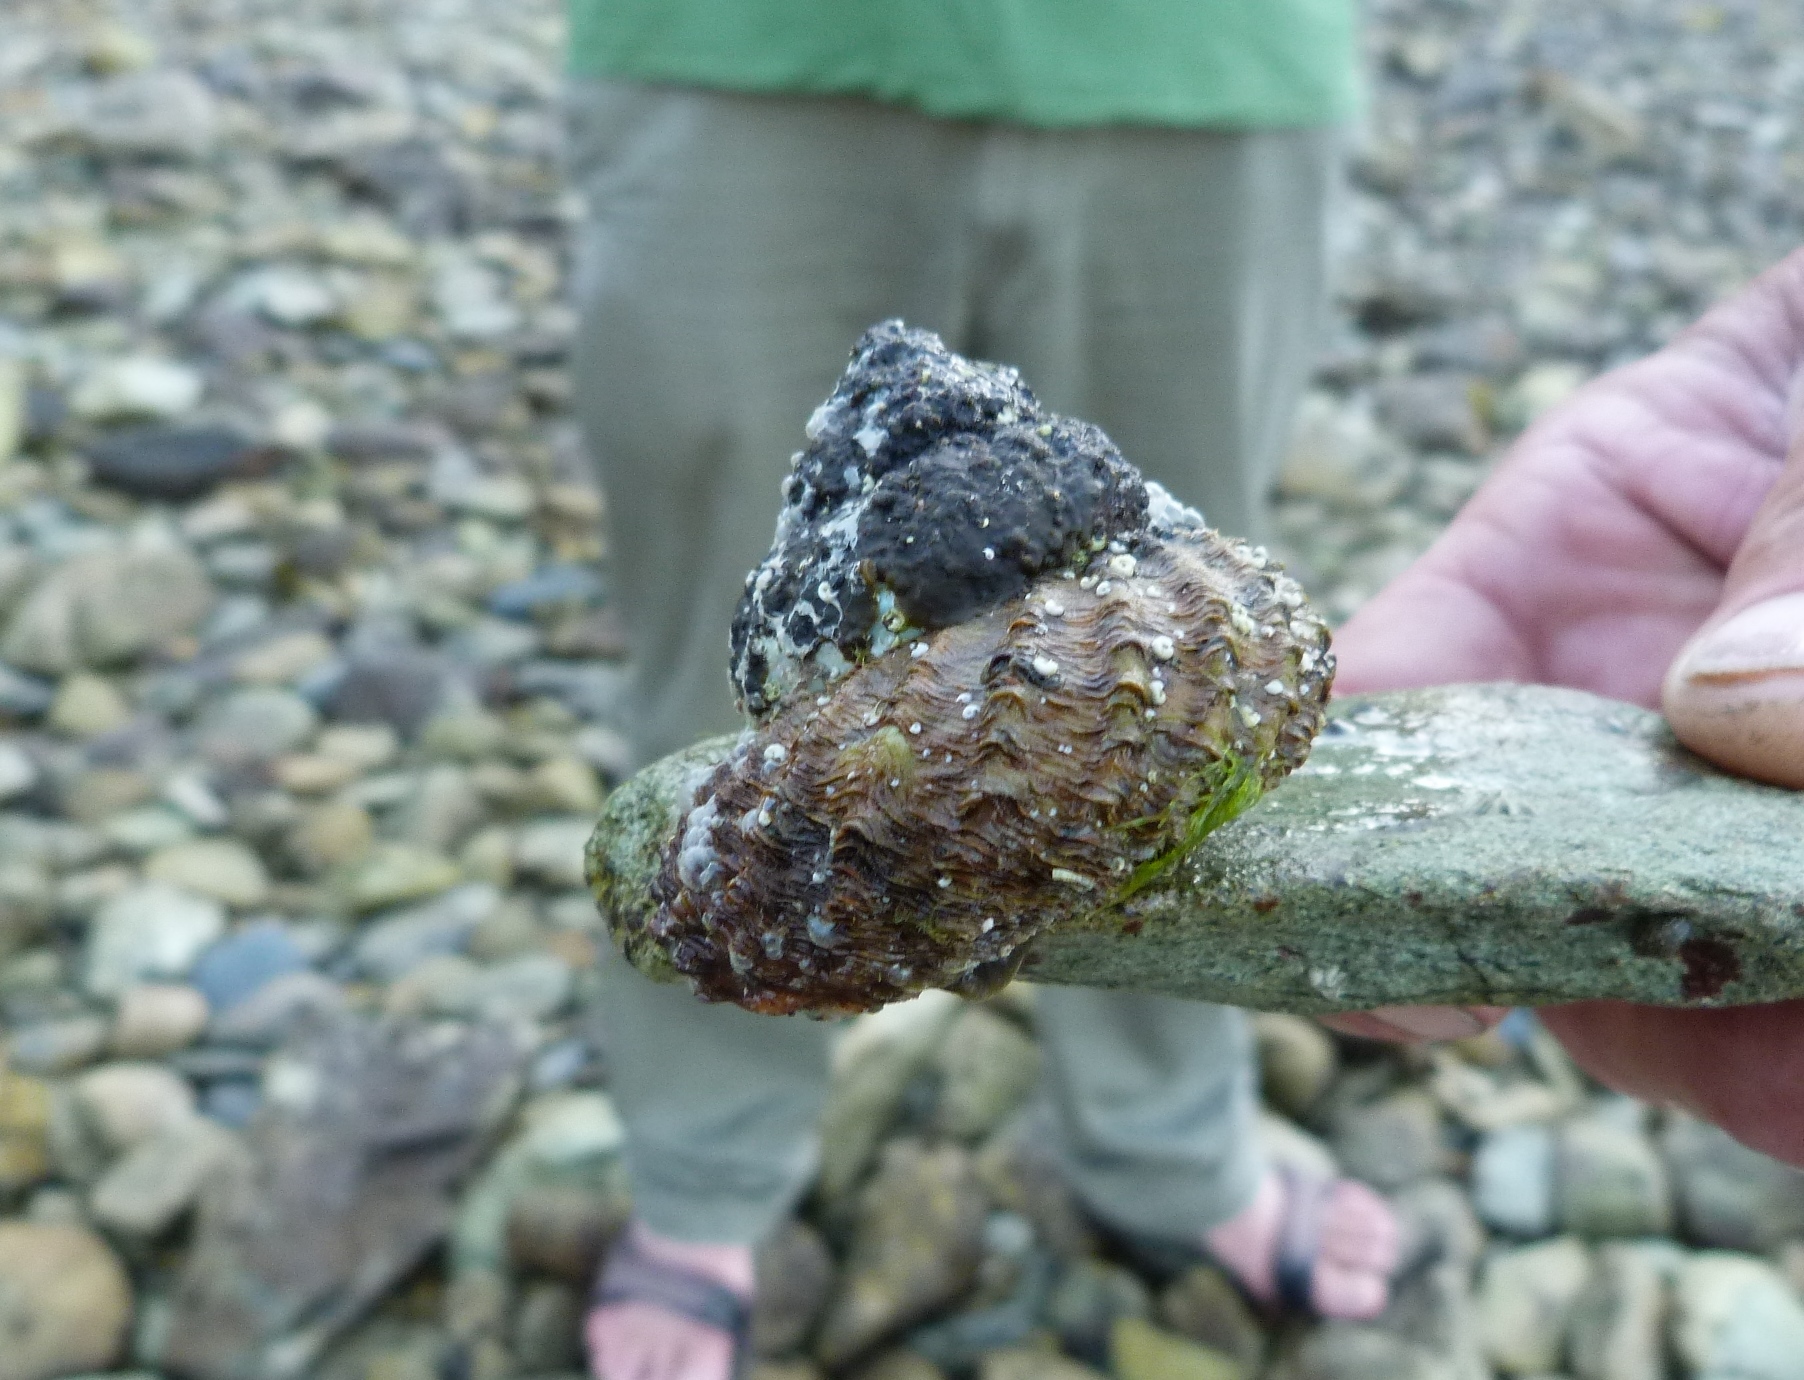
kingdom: Animalia
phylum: Mollusca
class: Gastropoda
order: Trochida
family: Turbinidae
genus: Cookia
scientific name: Cookia sulcata
